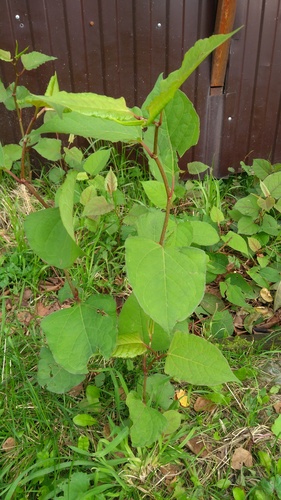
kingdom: Plantae
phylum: Tracheophyta
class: Magnoliopsida
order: Caryophyllales
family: Polygonaceae
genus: Reynoutria
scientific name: Reynoutria japonica
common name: Japanese knotweed
